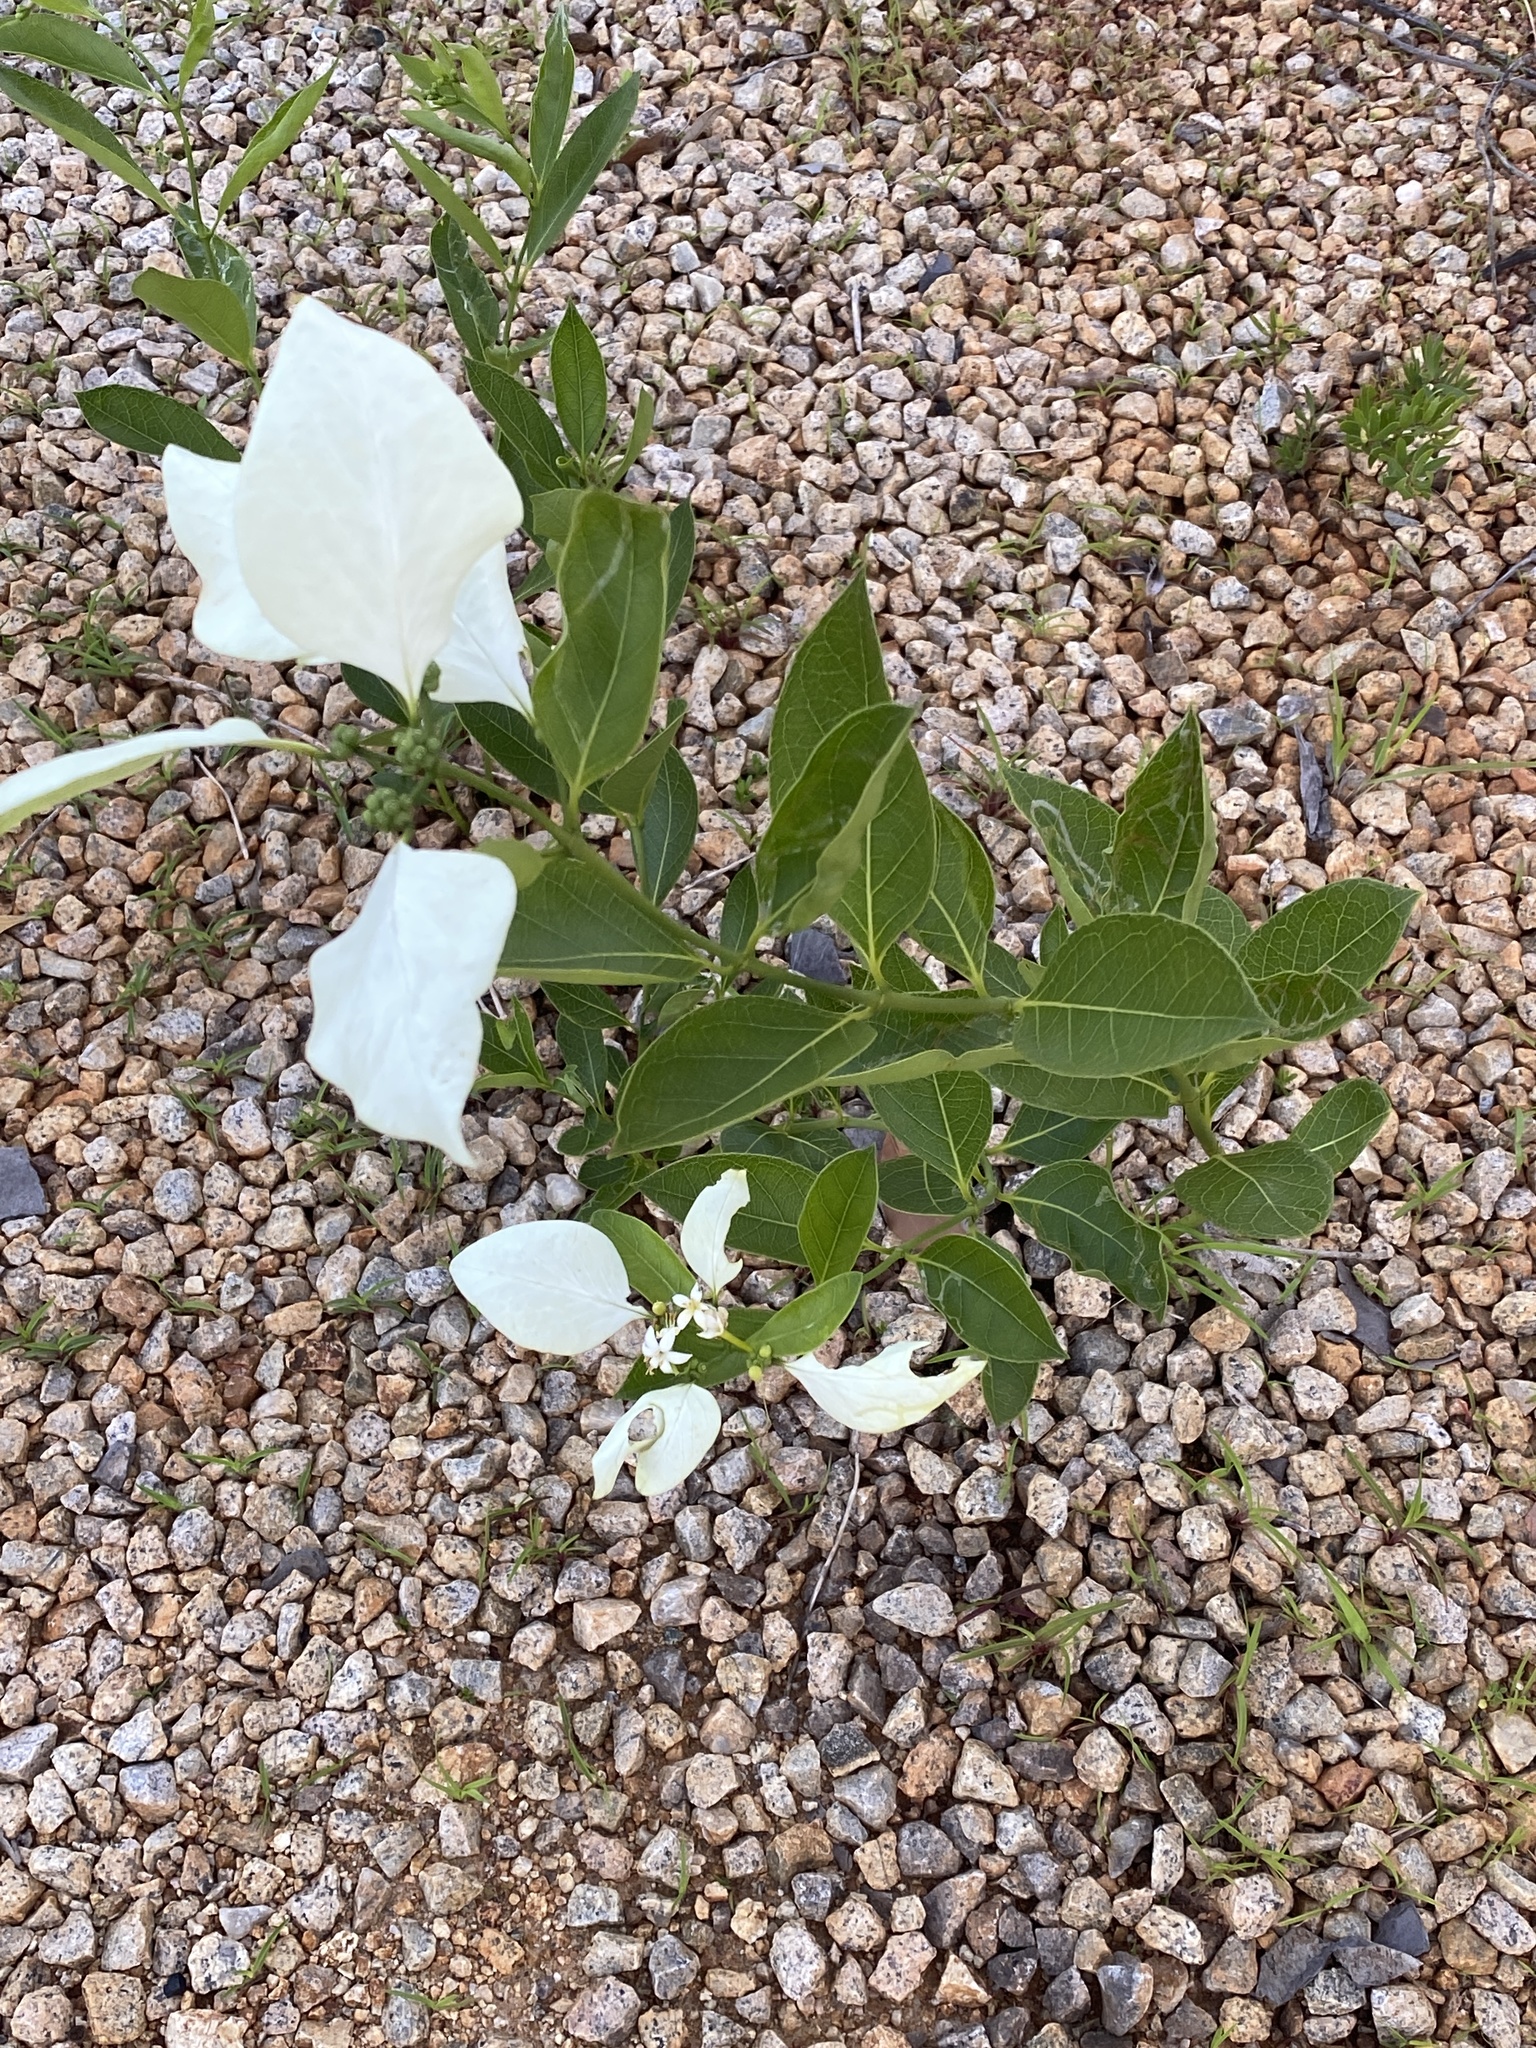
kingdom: Plantae
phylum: Tracheophyta
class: Magnoliopsida
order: Gentianales
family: Rubiaceae
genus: Coelospermum
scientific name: Coelospermum decipiens
